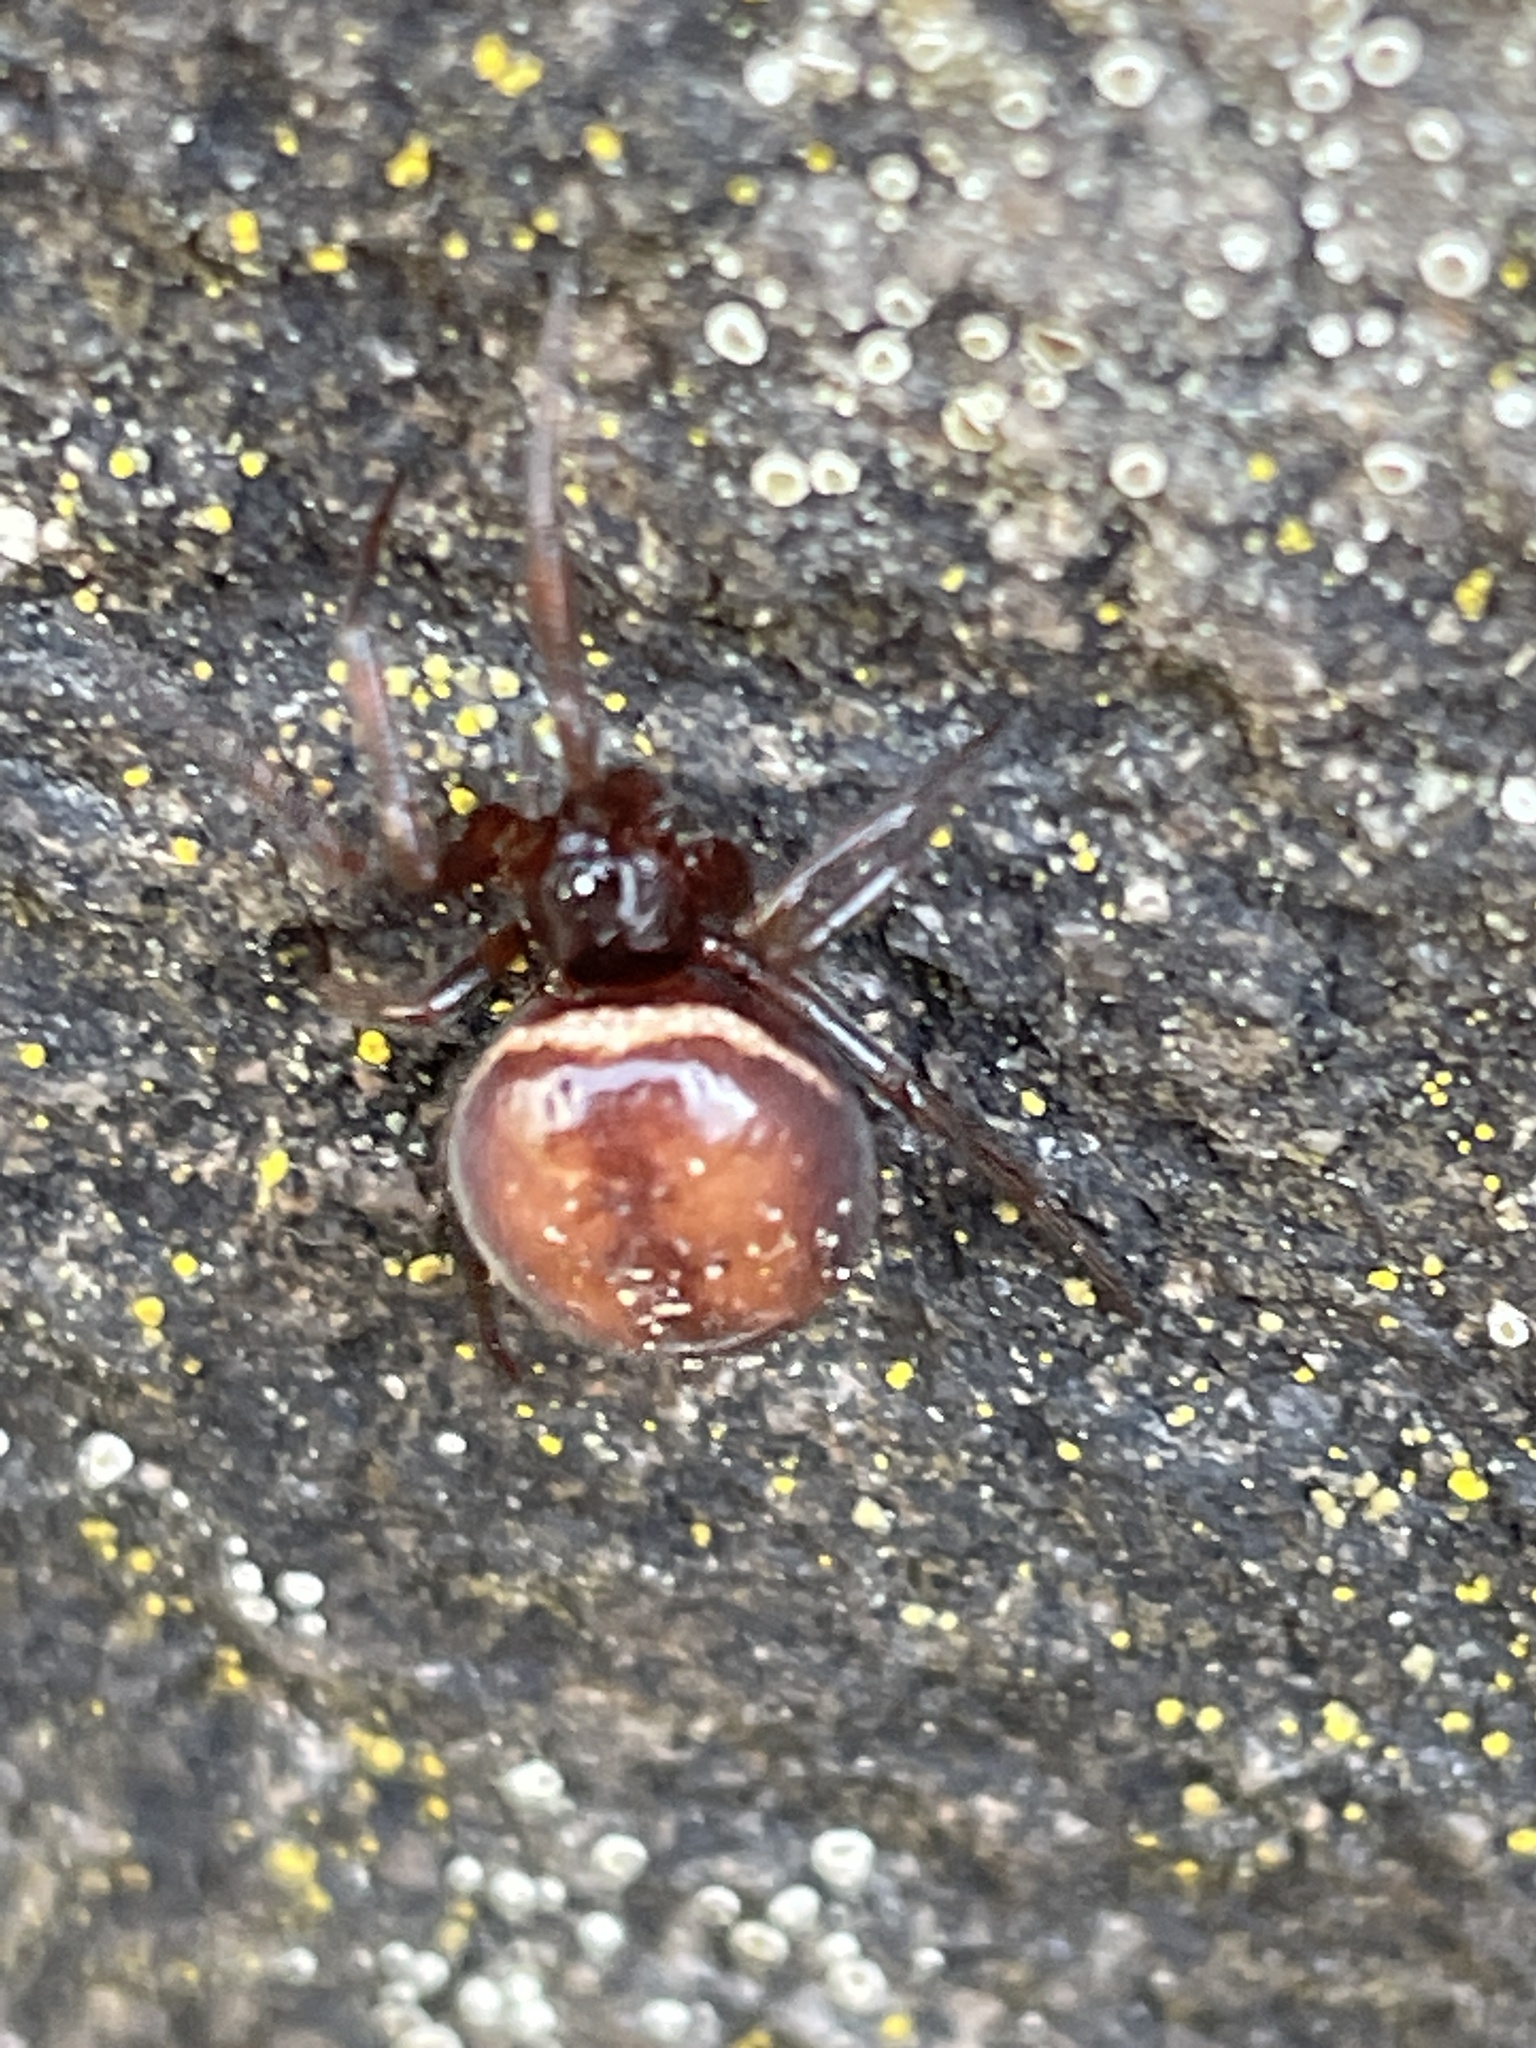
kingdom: Animalia
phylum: Arthropoda
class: Arachnida
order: Araneae
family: Theridiidae
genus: Steatoda
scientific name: Steatoda bipunctata
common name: False widow
